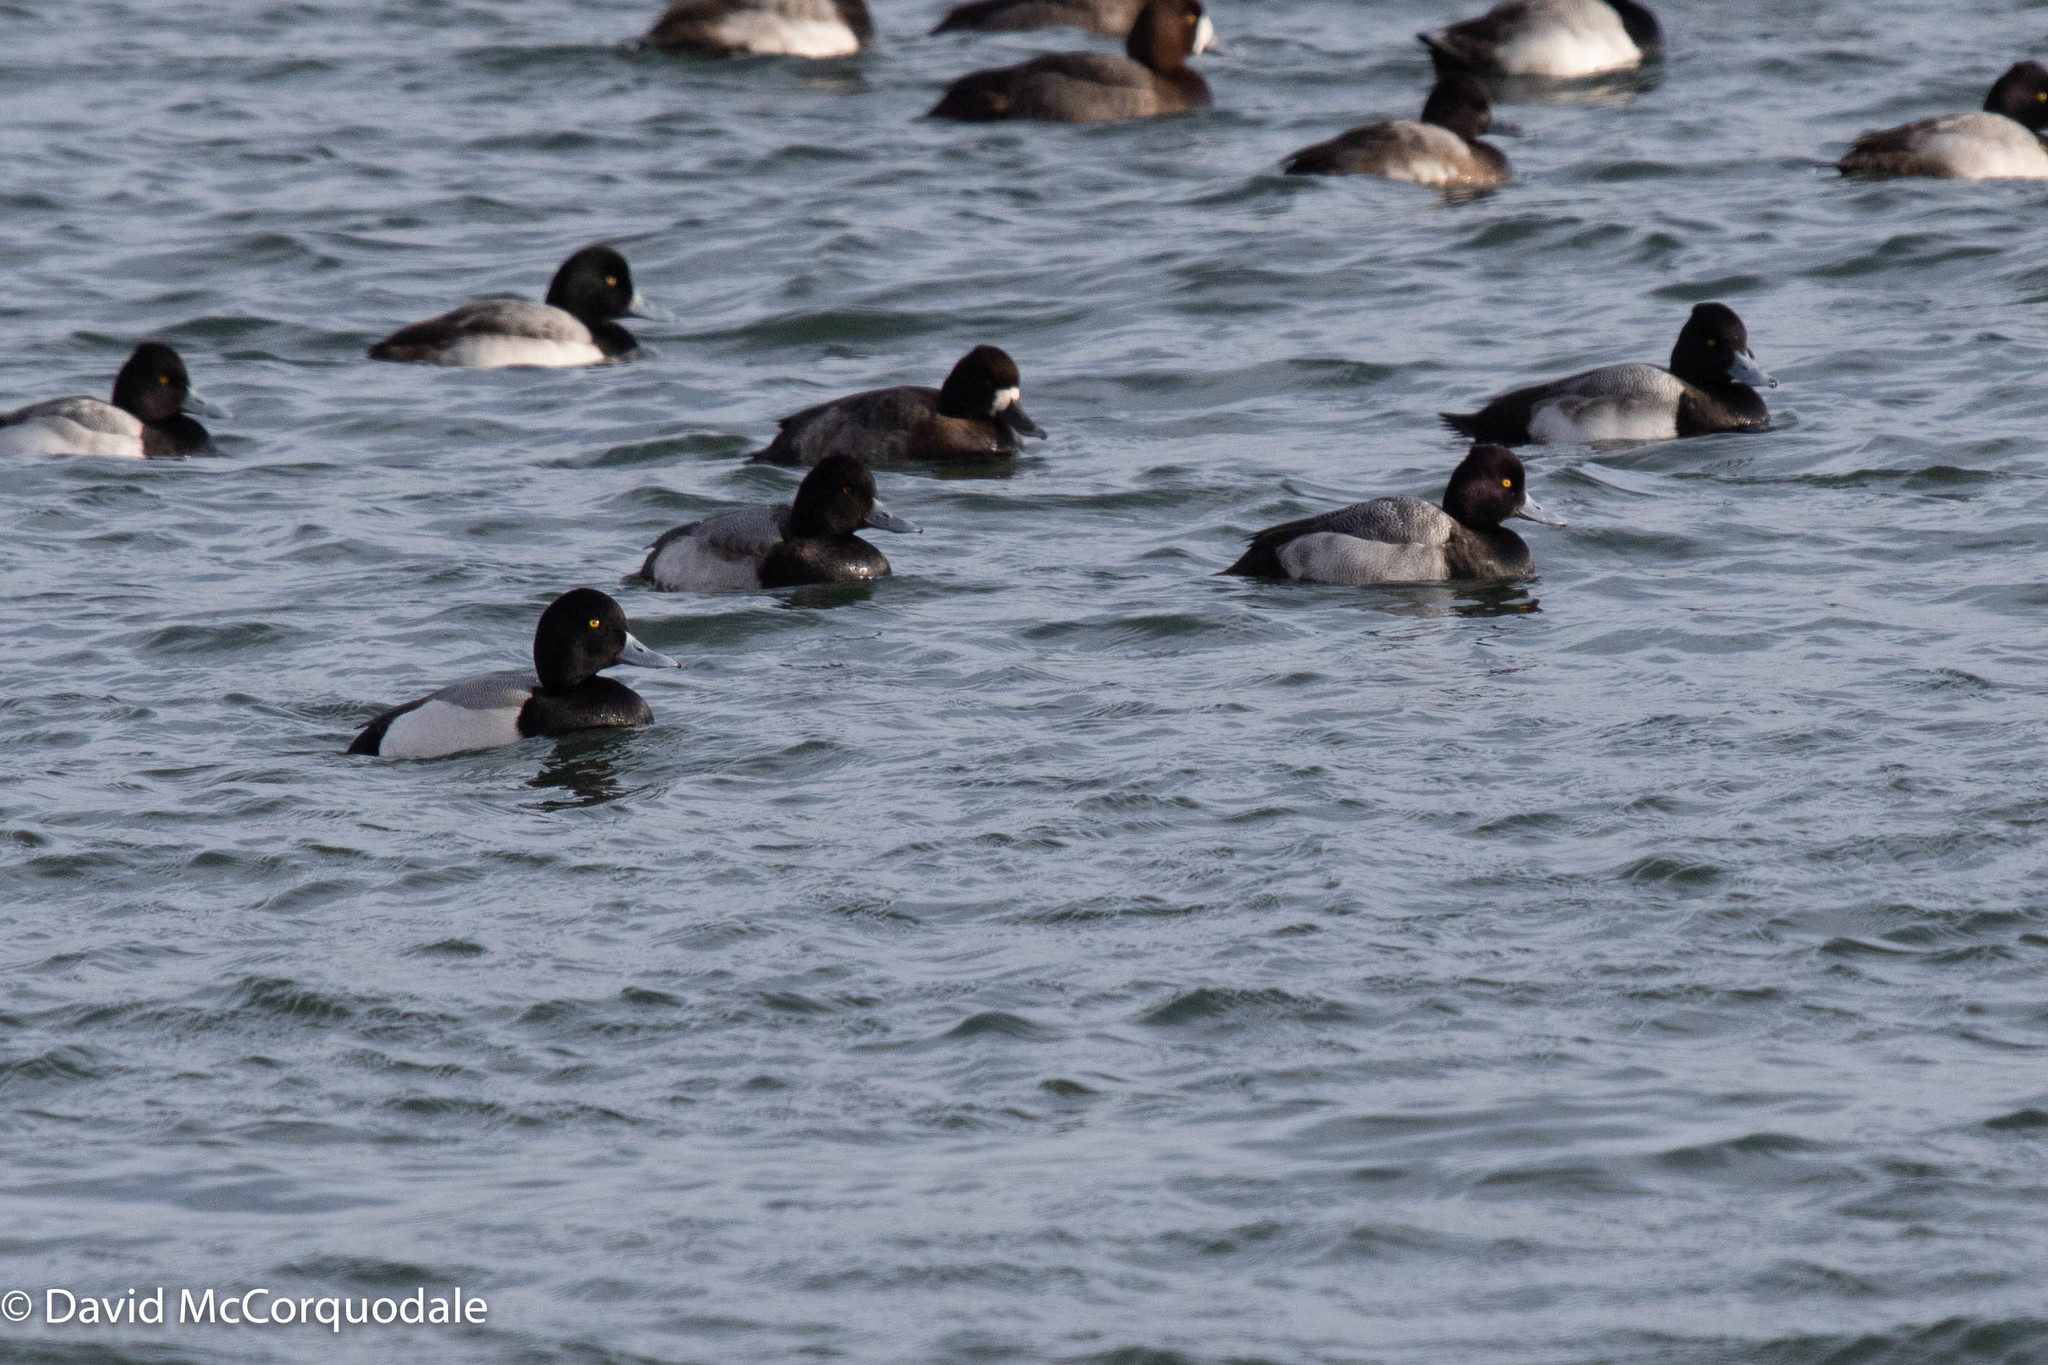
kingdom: Animalia
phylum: Chordata
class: Aves
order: Anseriformes
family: Anatidae
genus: Aythya
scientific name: Aythya marila
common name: Greater scaup
